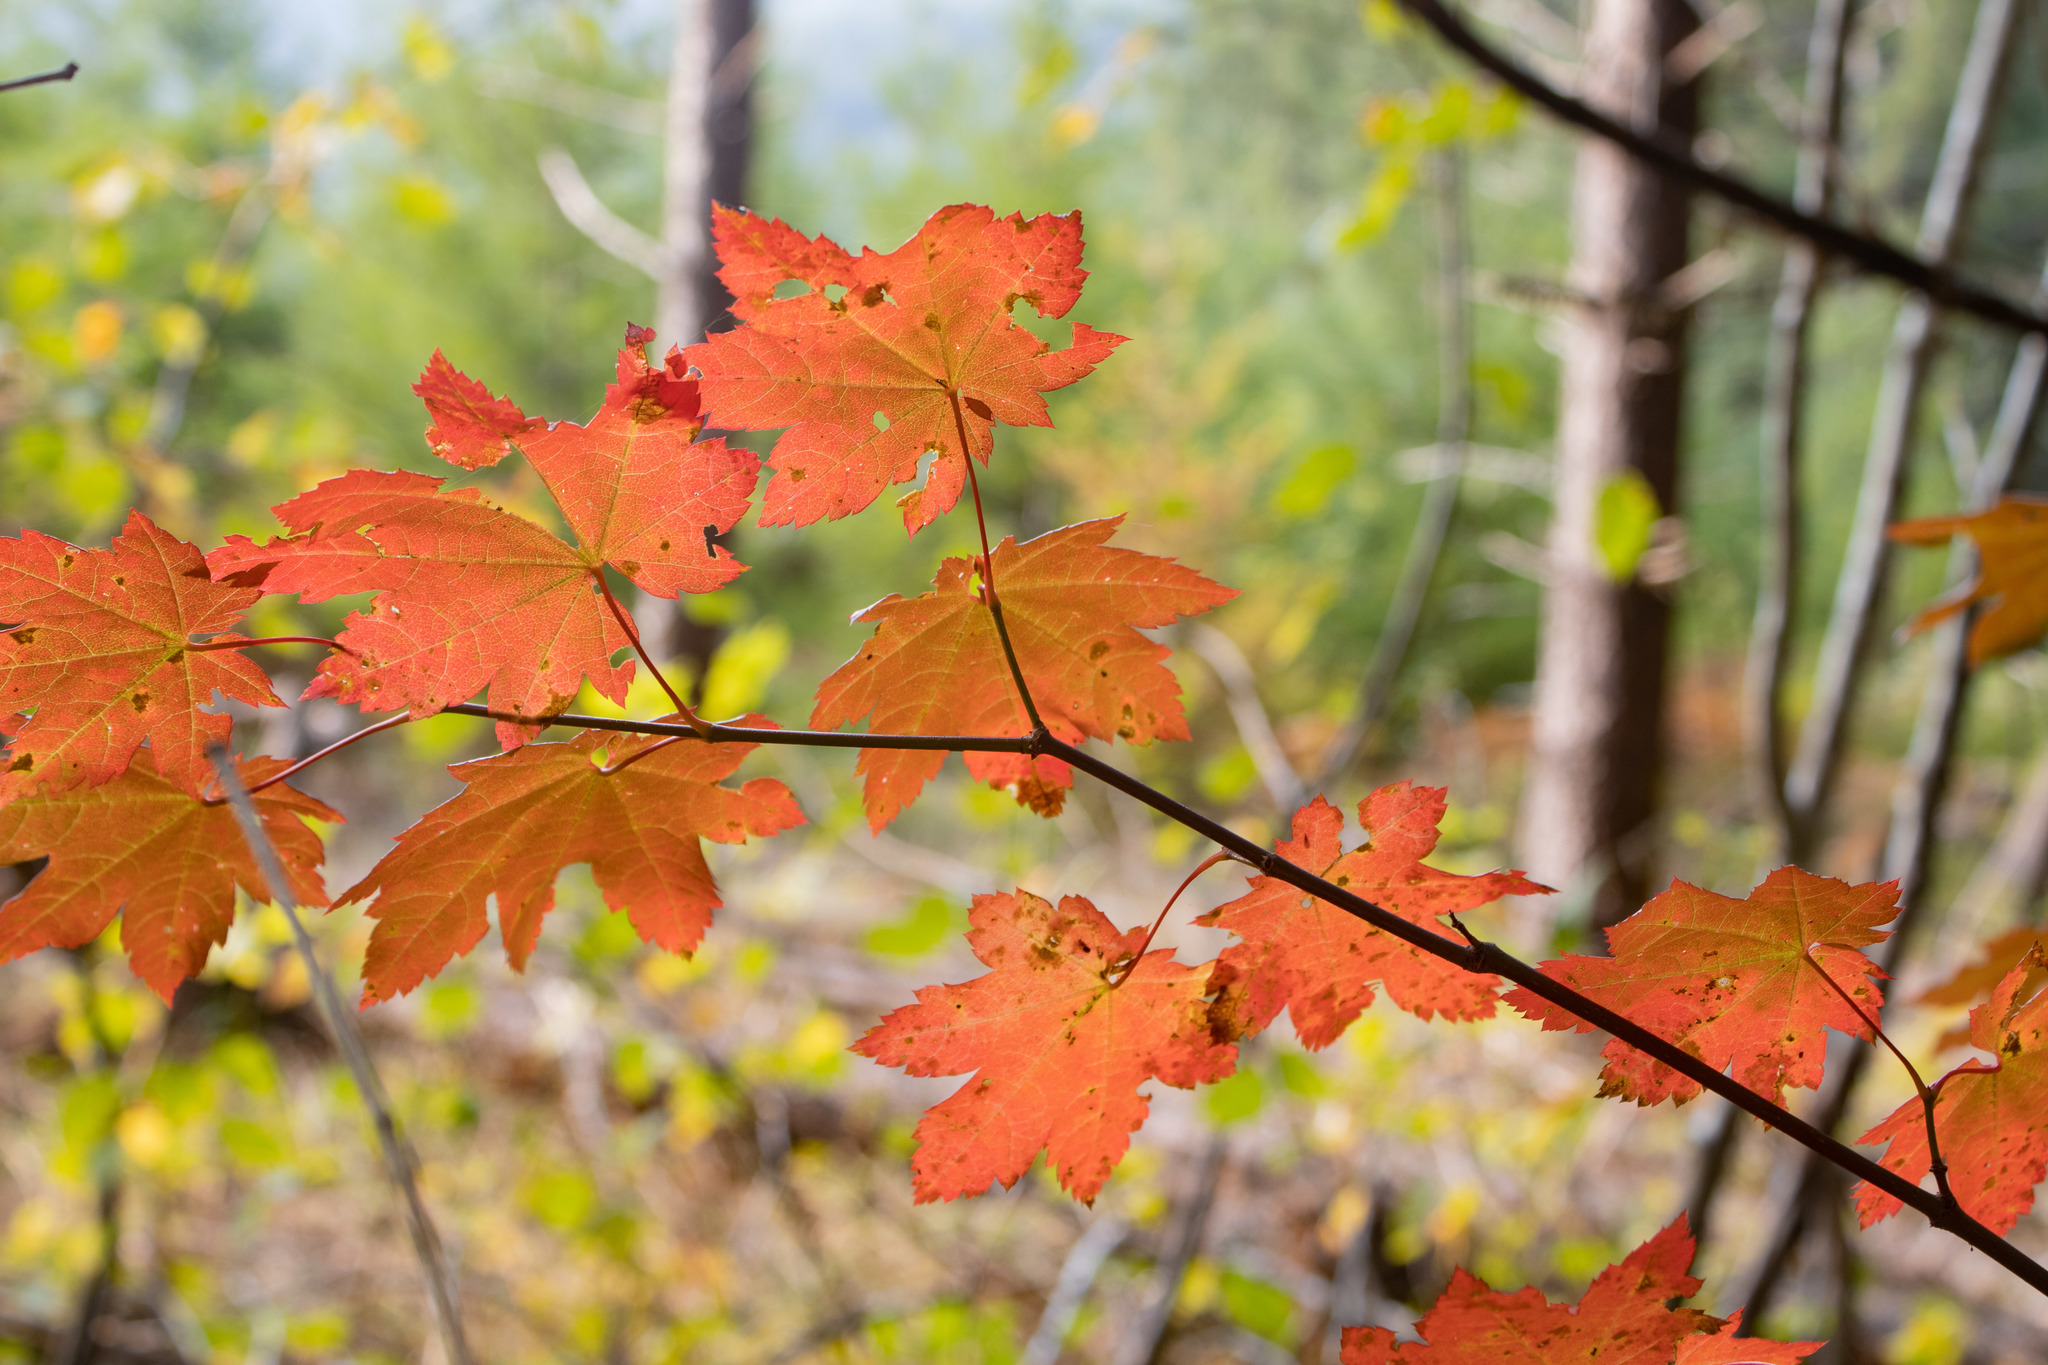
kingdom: Plantae
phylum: Tracheophyta
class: Magnoliopsida
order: Sapindales
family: Sapindaceae
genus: Acer
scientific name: Acer circinatum
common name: Vine maple
